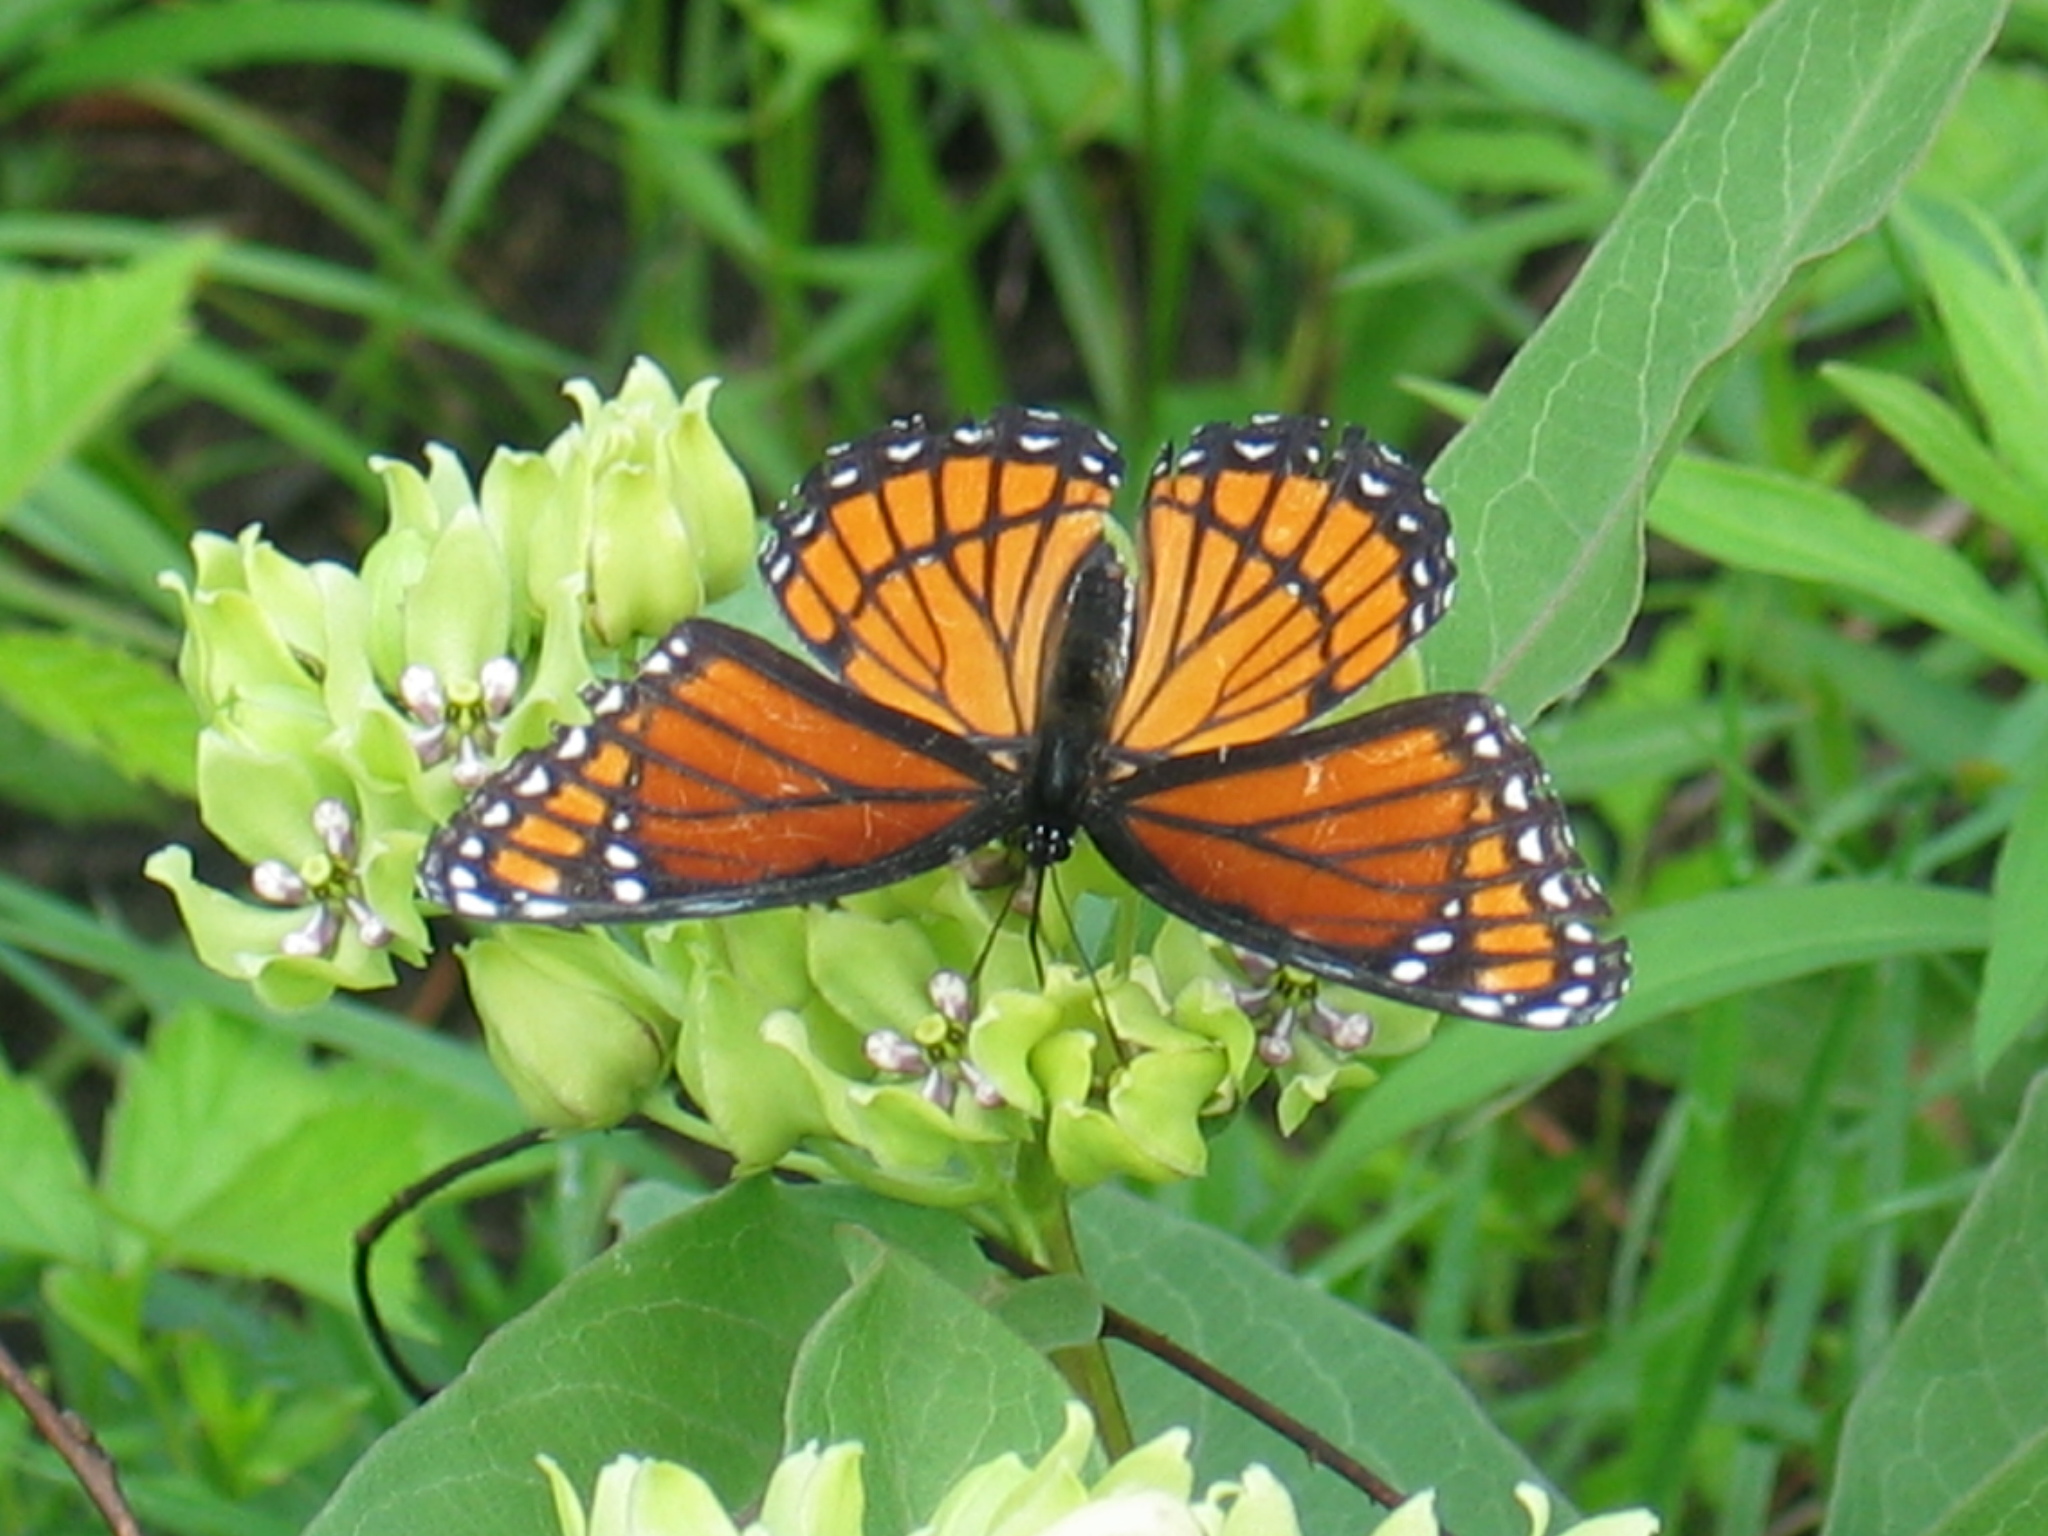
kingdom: Animalia
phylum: Arthropoda
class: Insecta
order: Lepidoptera
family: Nymphalidae
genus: Limenitis
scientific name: Limenitis archippus
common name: Viceroy
